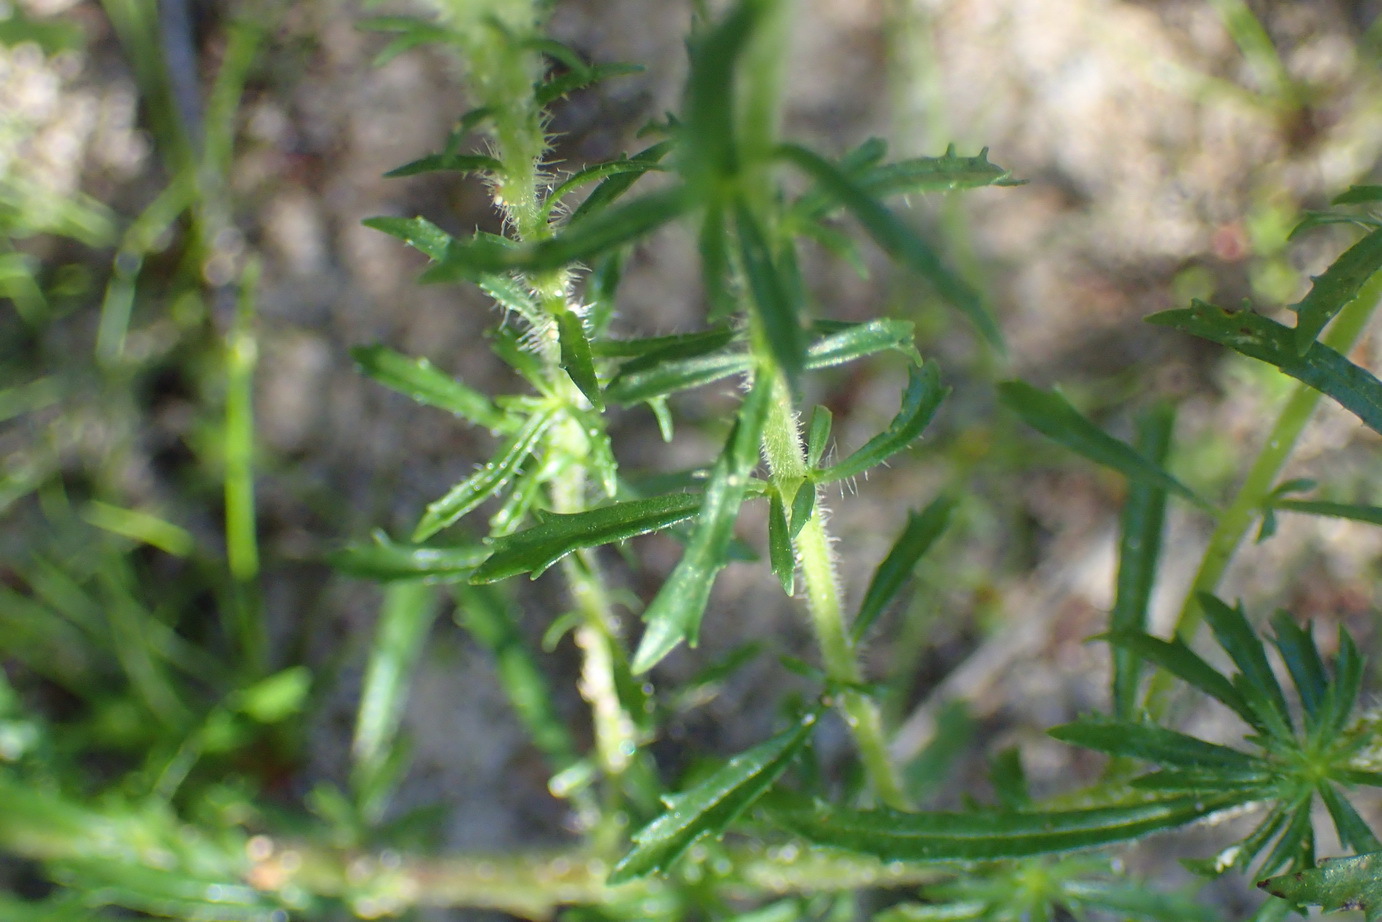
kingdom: Plantae
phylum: Tracheophyta
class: Magnoliopsida
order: Lamiales
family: Scrophulariaceae
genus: Dischisma
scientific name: Dischisma ciliatum
